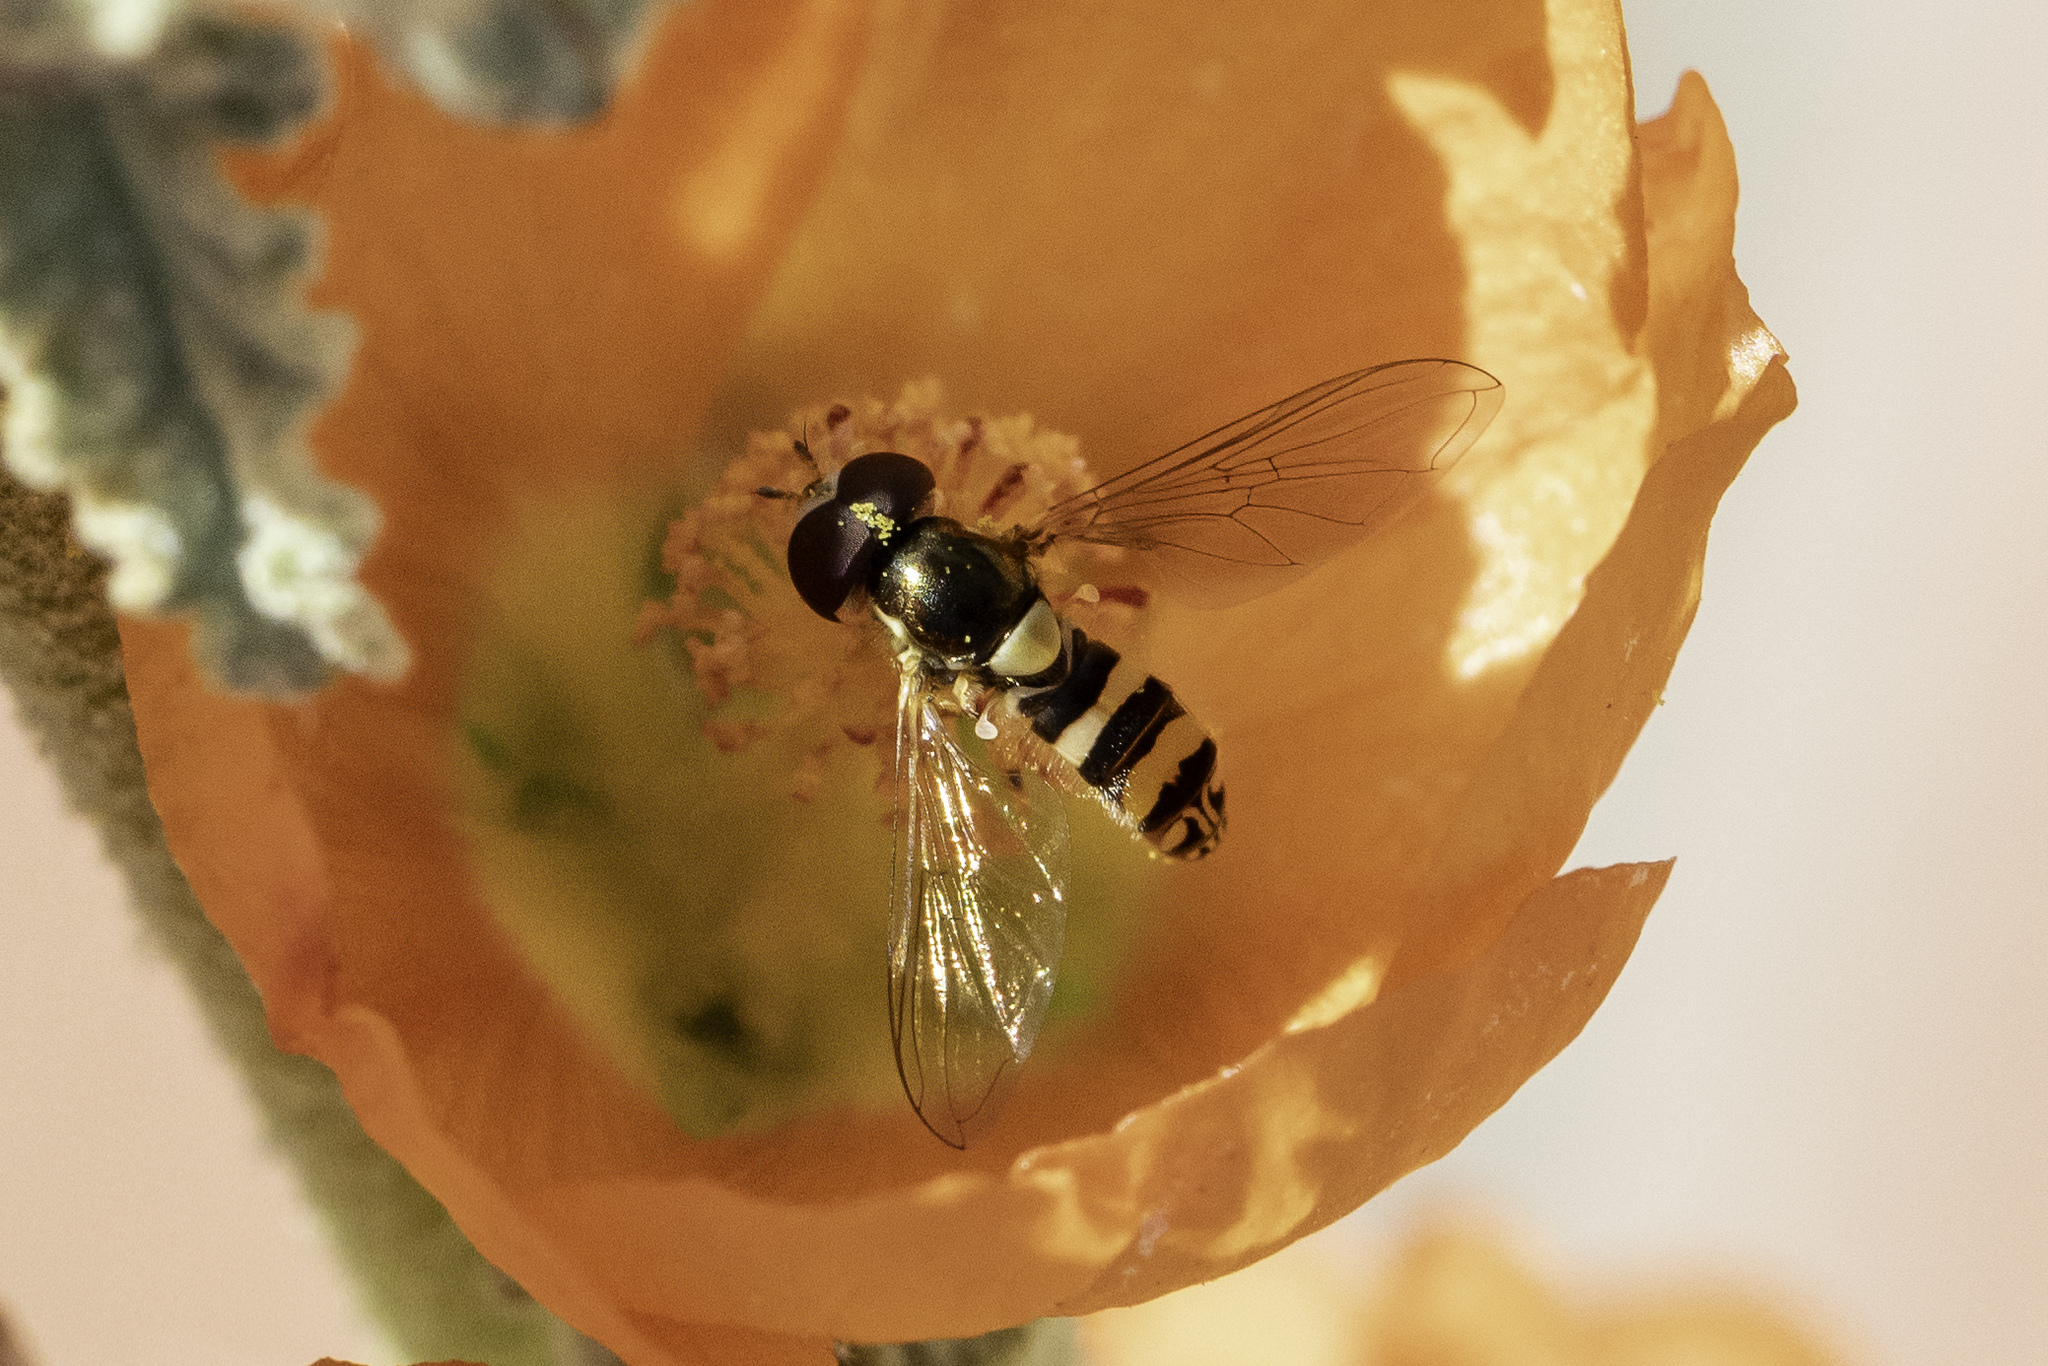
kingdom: Animalia
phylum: Arthropoda
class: Insecta
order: Diptera
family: Syrphidae
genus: Allograpta
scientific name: Allograpta exotica
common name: Syrphid fly
